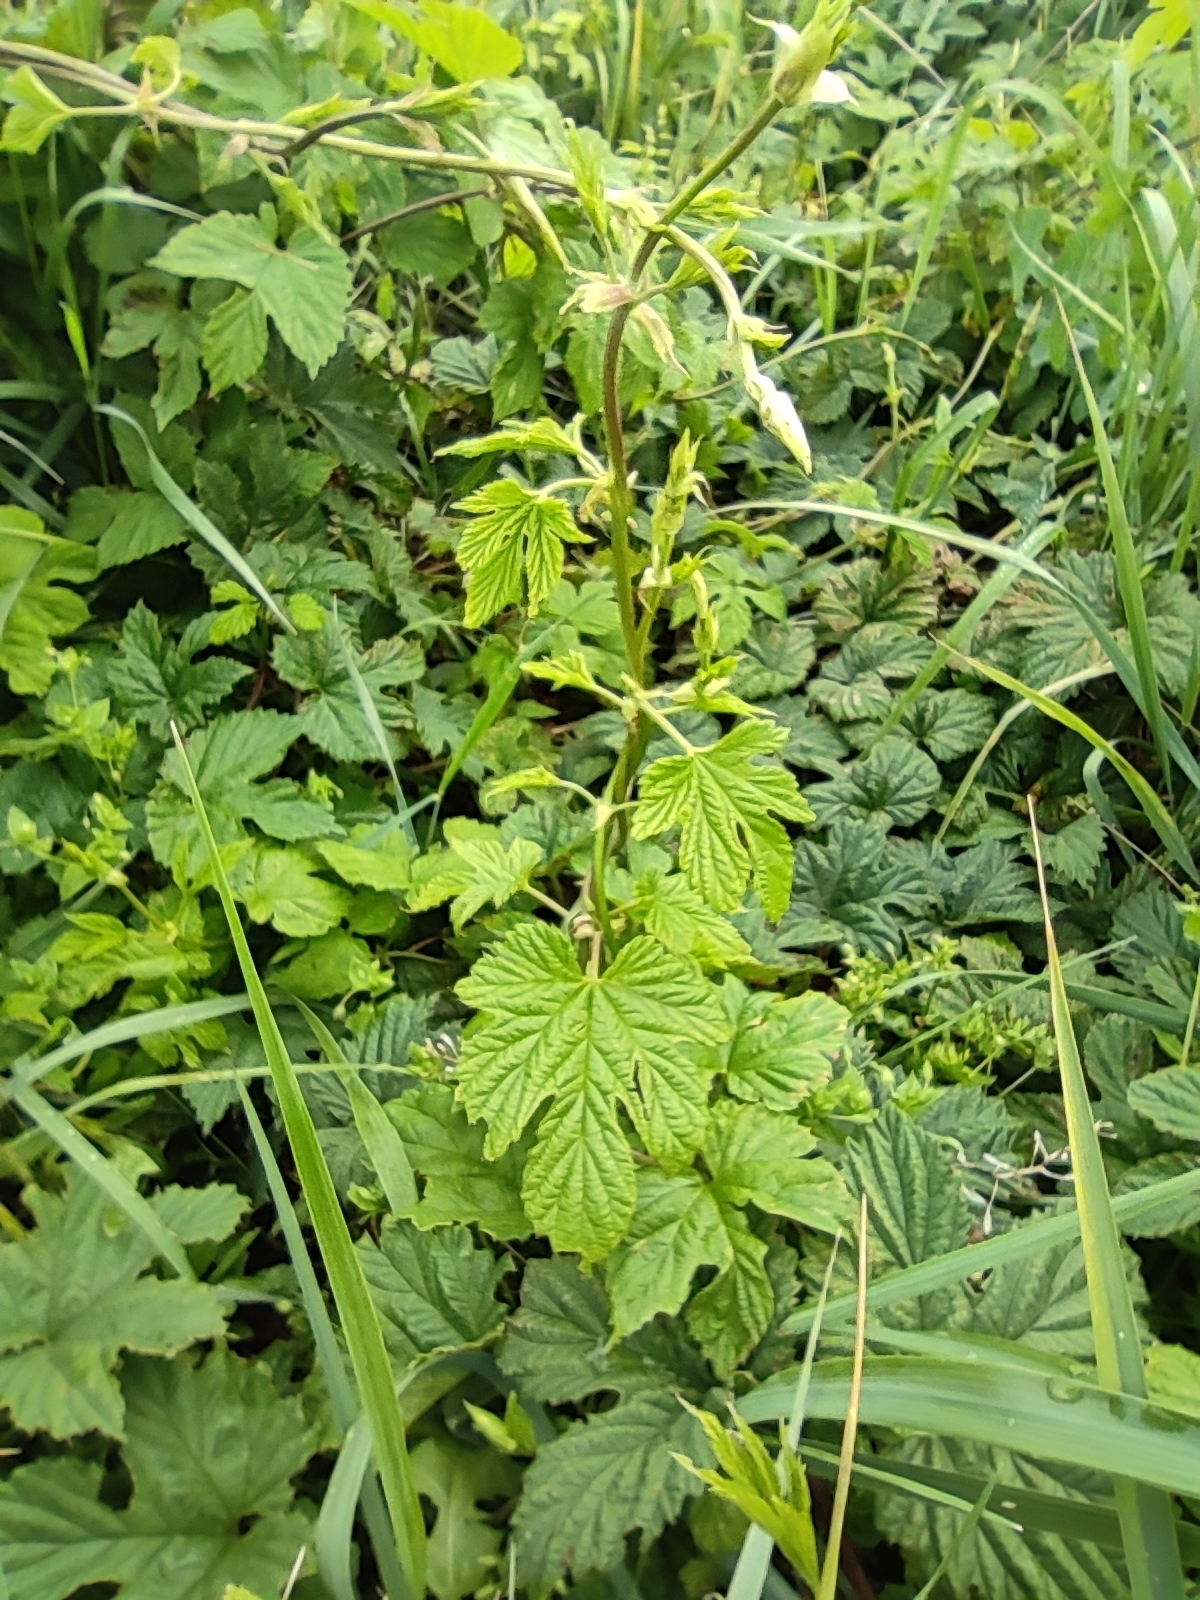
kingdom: Plantae
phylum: Tracheophyta
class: Magnoliopsida
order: Rosales
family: Cannabaceae
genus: Humulus
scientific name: Humulus lupulus
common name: Hop
